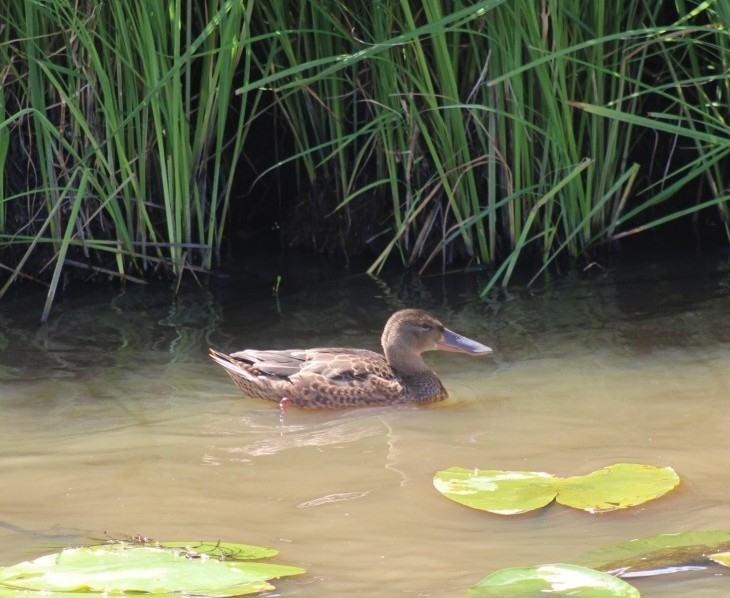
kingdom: Animalia
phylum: Chordata
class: Aves
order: Anseriformes
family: Anatidae
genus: Spatula
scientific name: Spatula clypeata
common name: Northern shoveler
